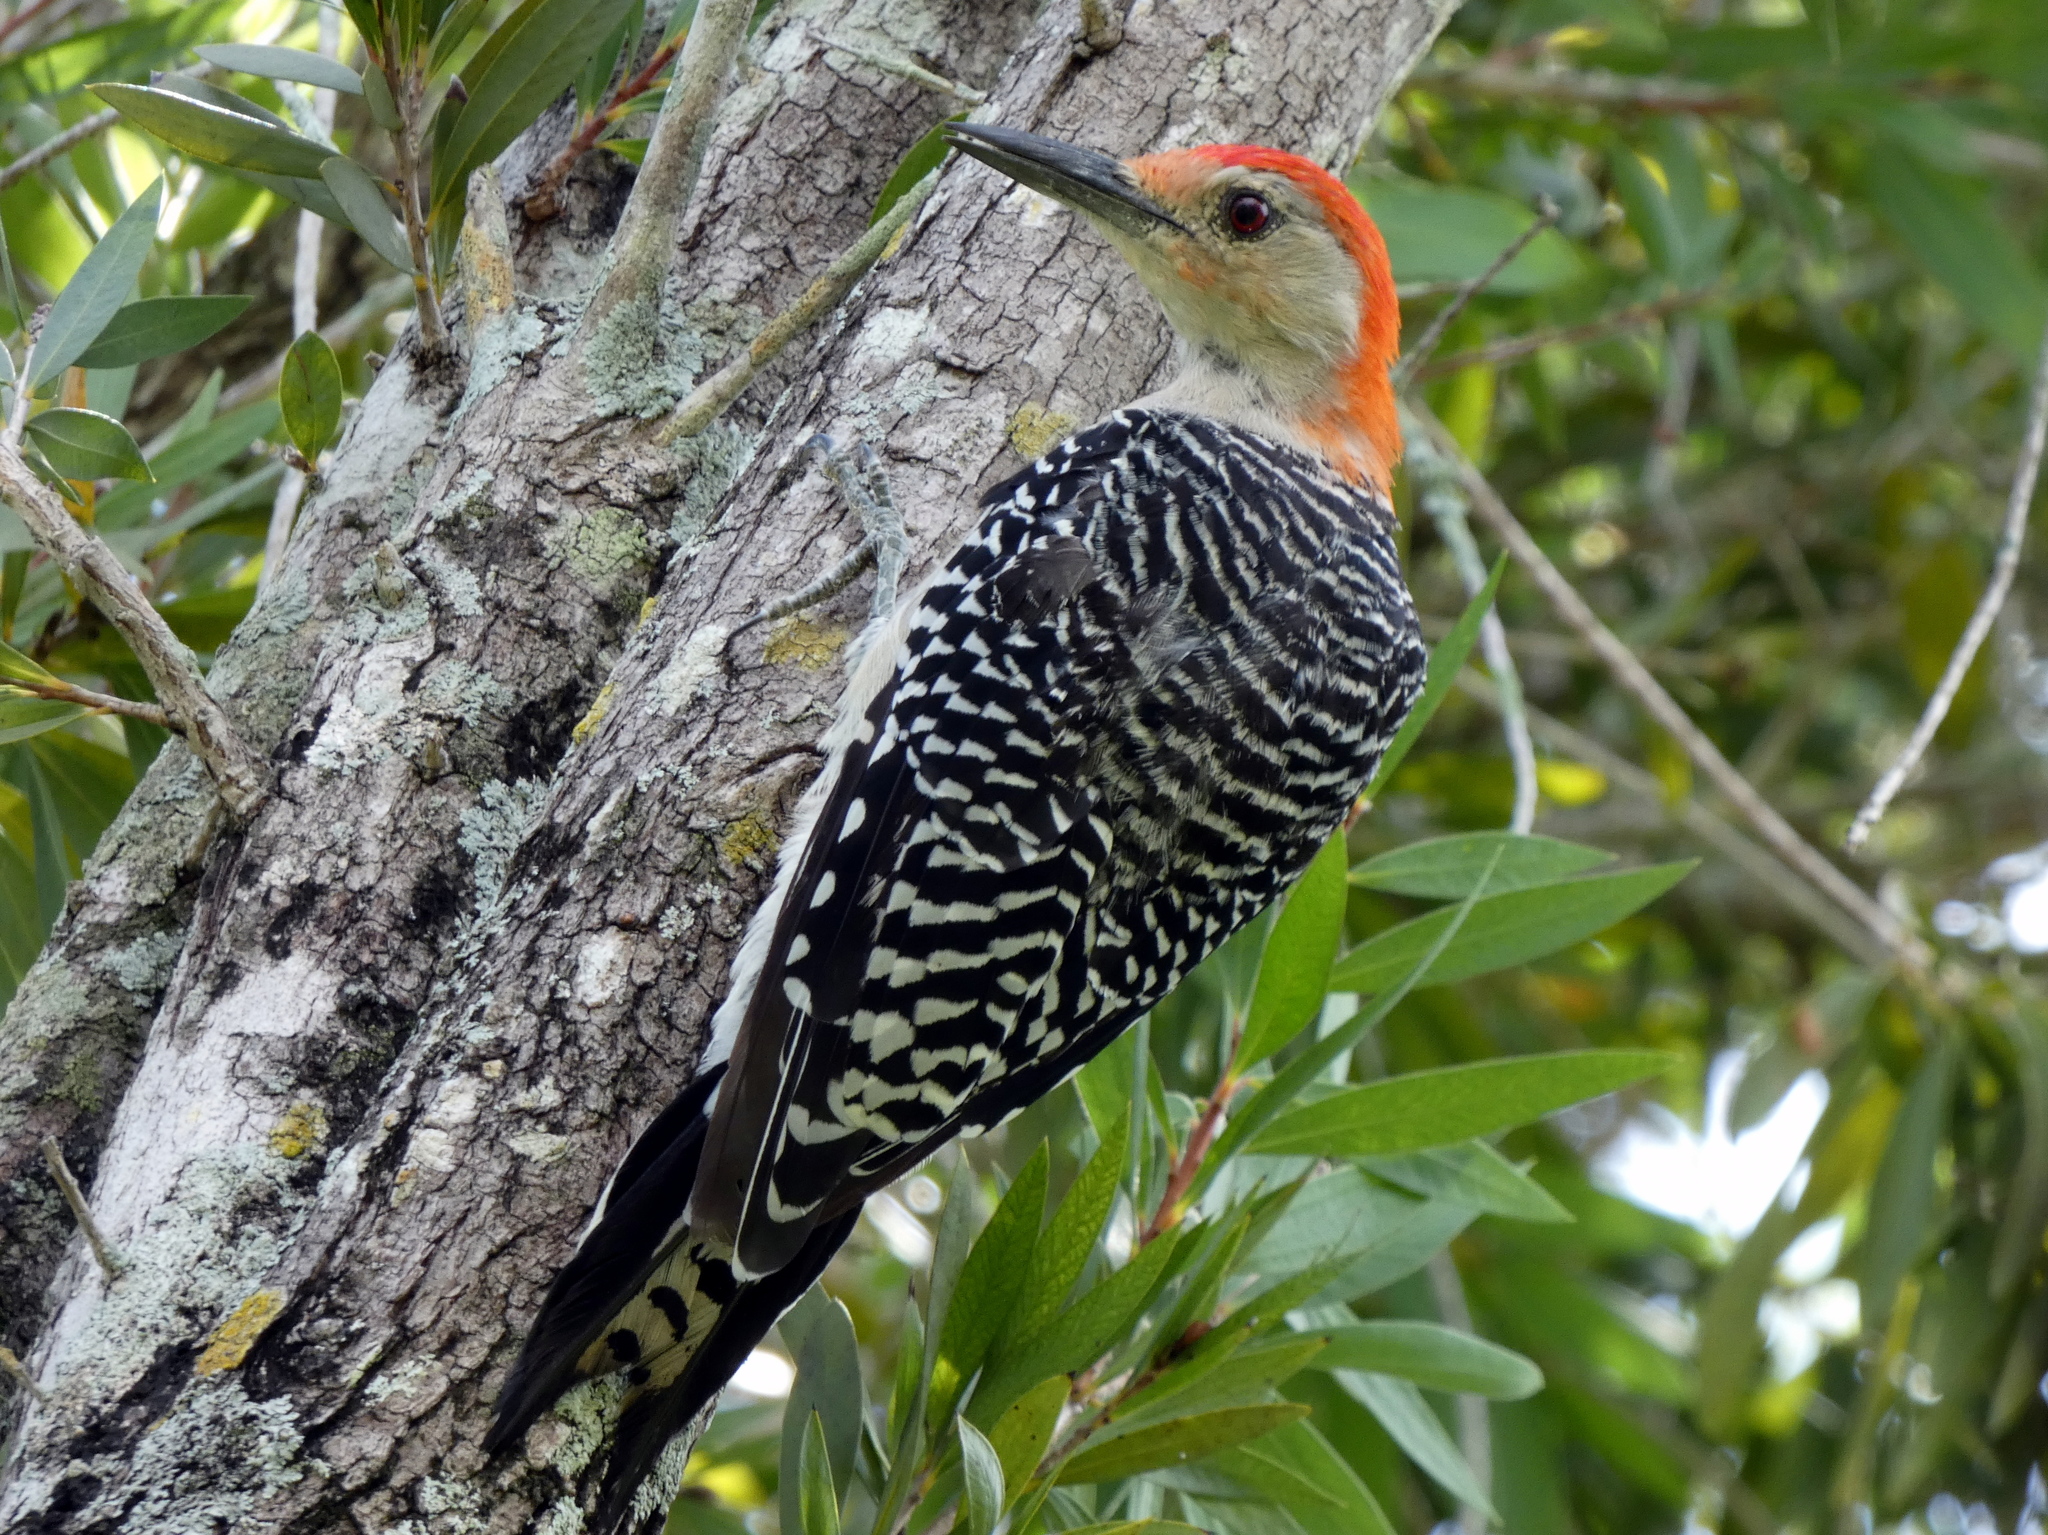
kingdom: Animalia
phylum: Chordata
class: Aves
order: Piciformes
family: Picidae
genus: Melanerpes
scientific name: Melanerpes carolinus
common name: Red-bellied woodpecker
